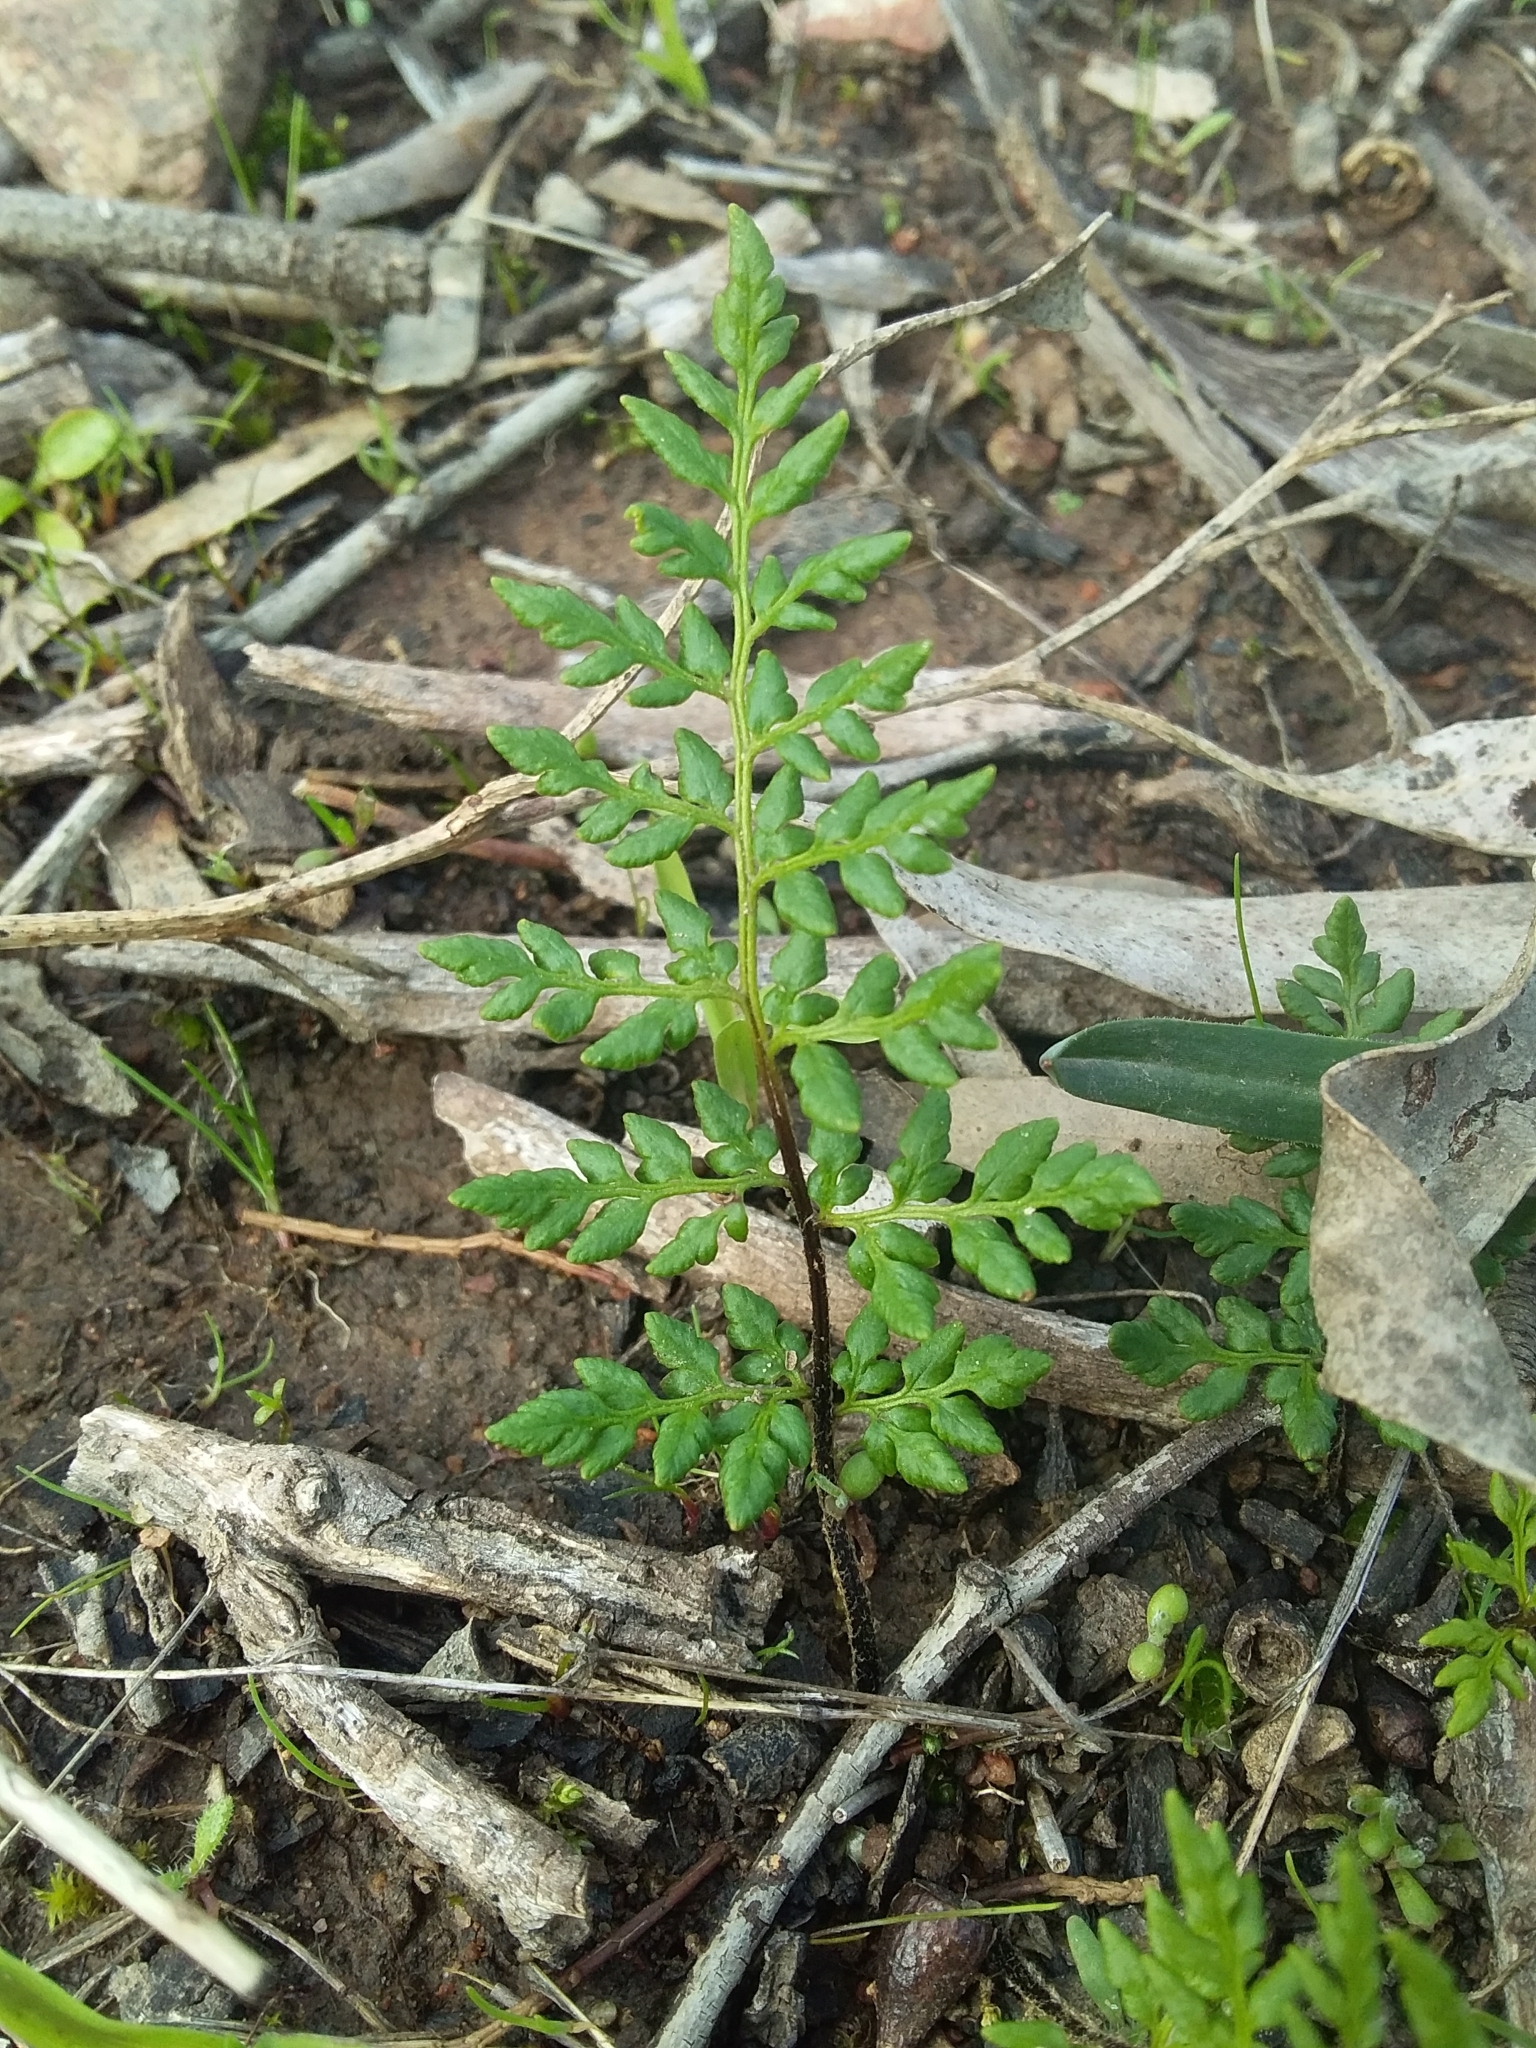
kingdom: Plantae
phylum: Tracheophyta
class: Polypodiopsida
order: Polypodiales
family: Pteridaceae
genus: Cheilanthes
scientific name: Cheilanthes austrotenuifolia
